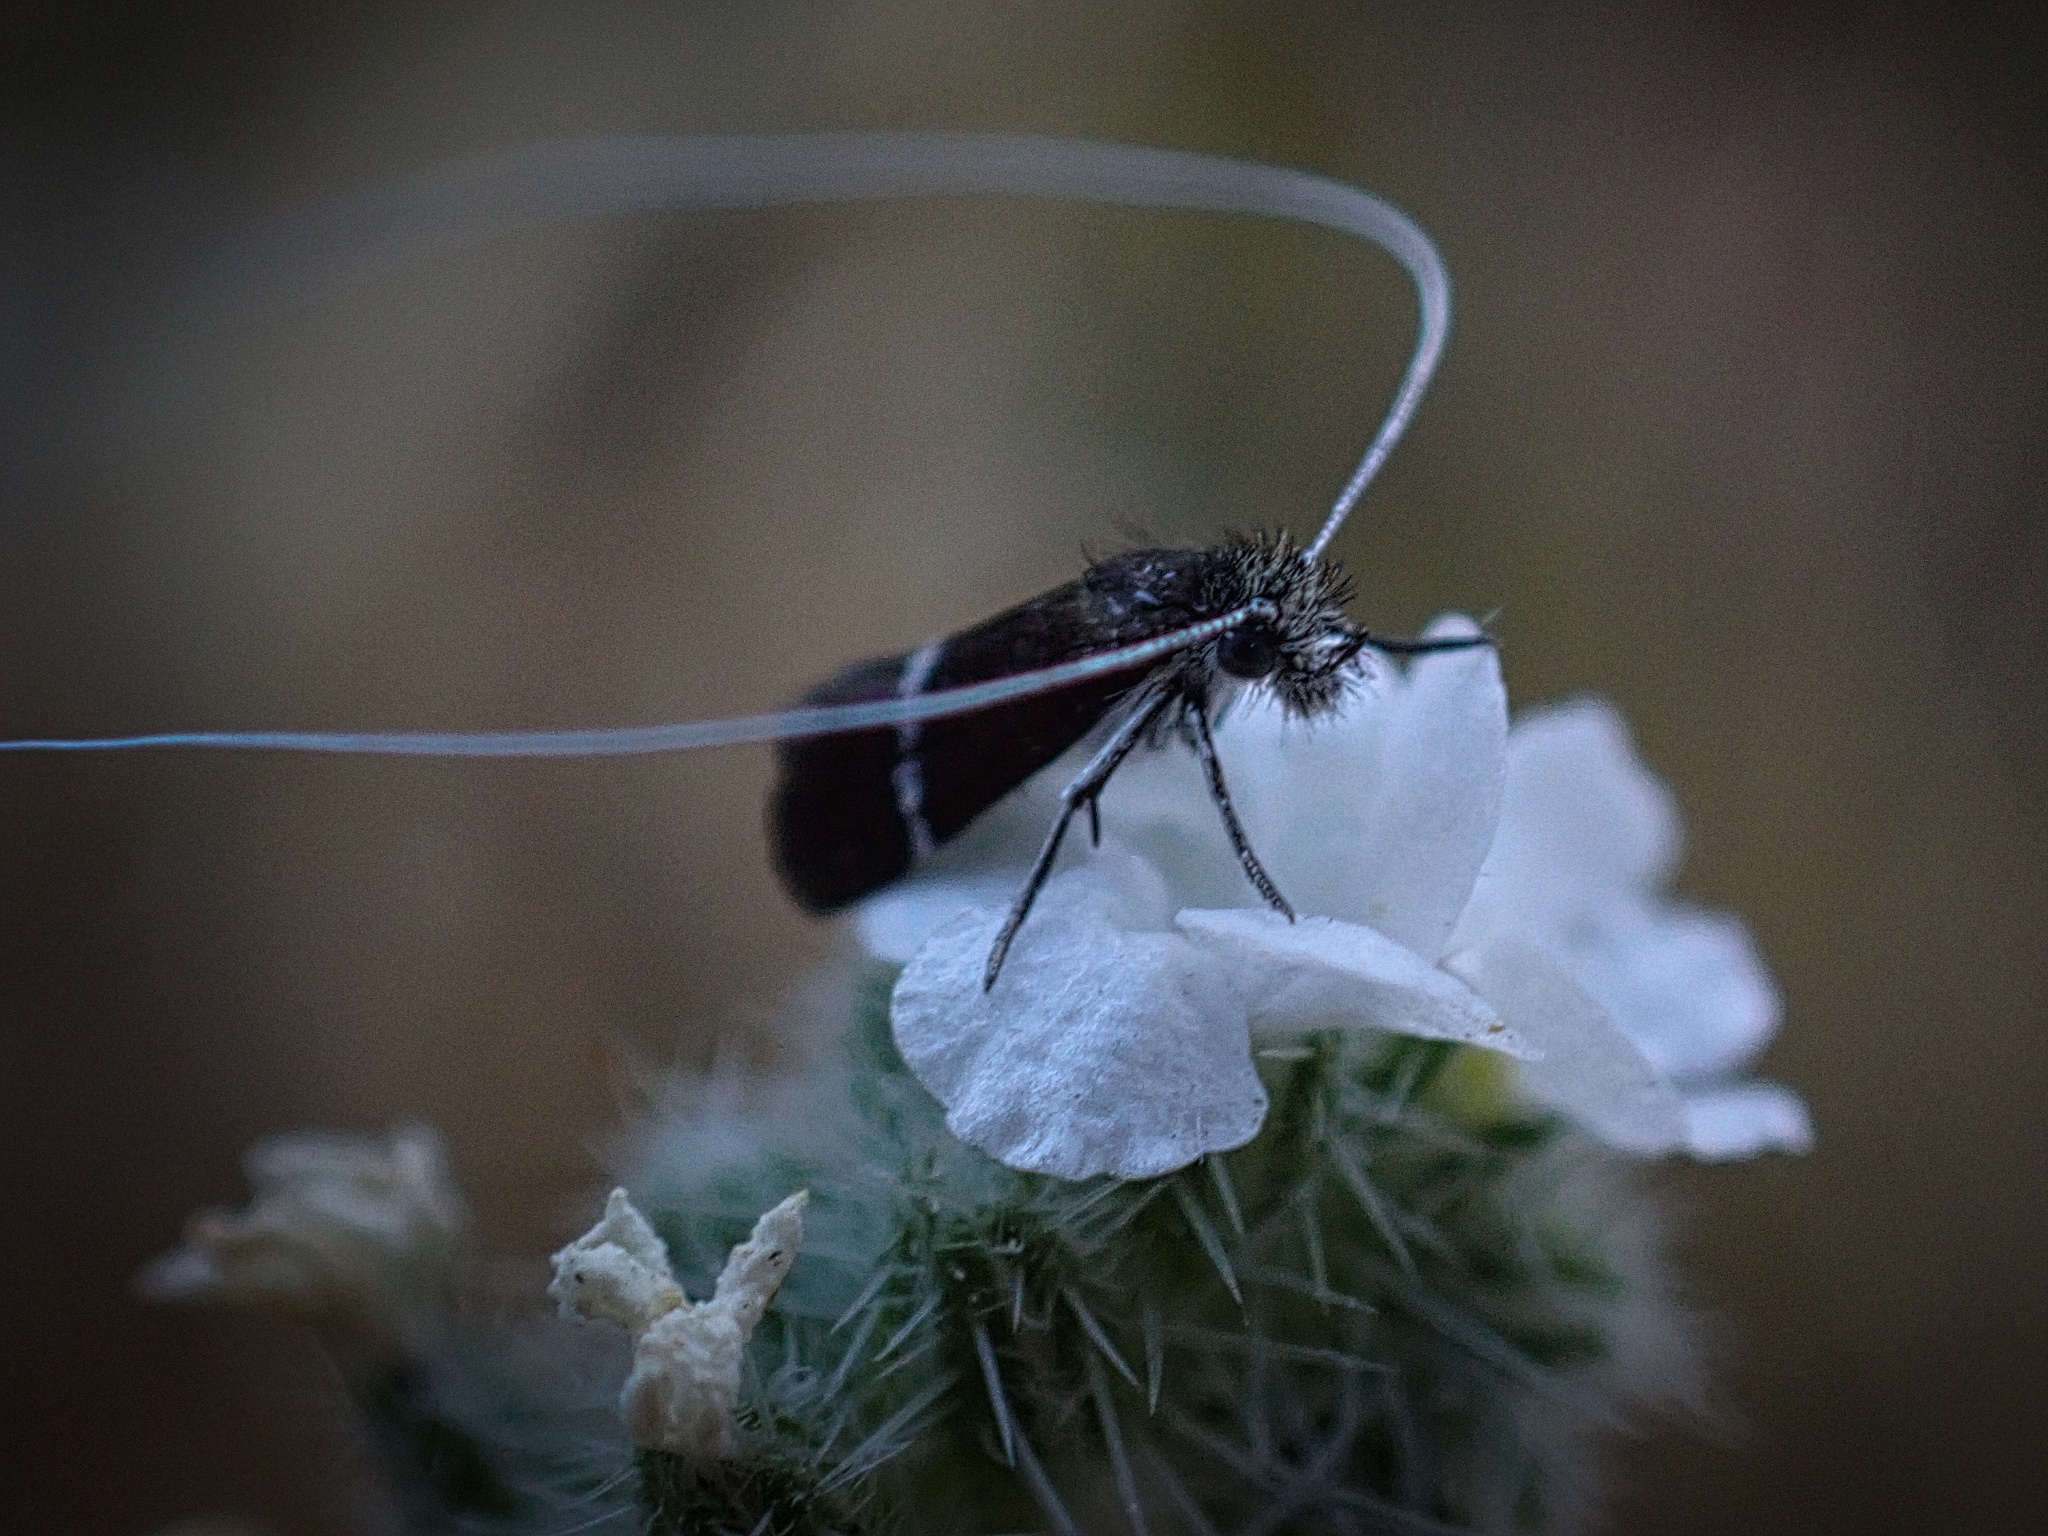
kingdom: Animalia
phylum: Arthropoda
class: Insecta
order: Lepidoptera
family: Adelidae
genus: Adela
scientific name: Adela singulella
